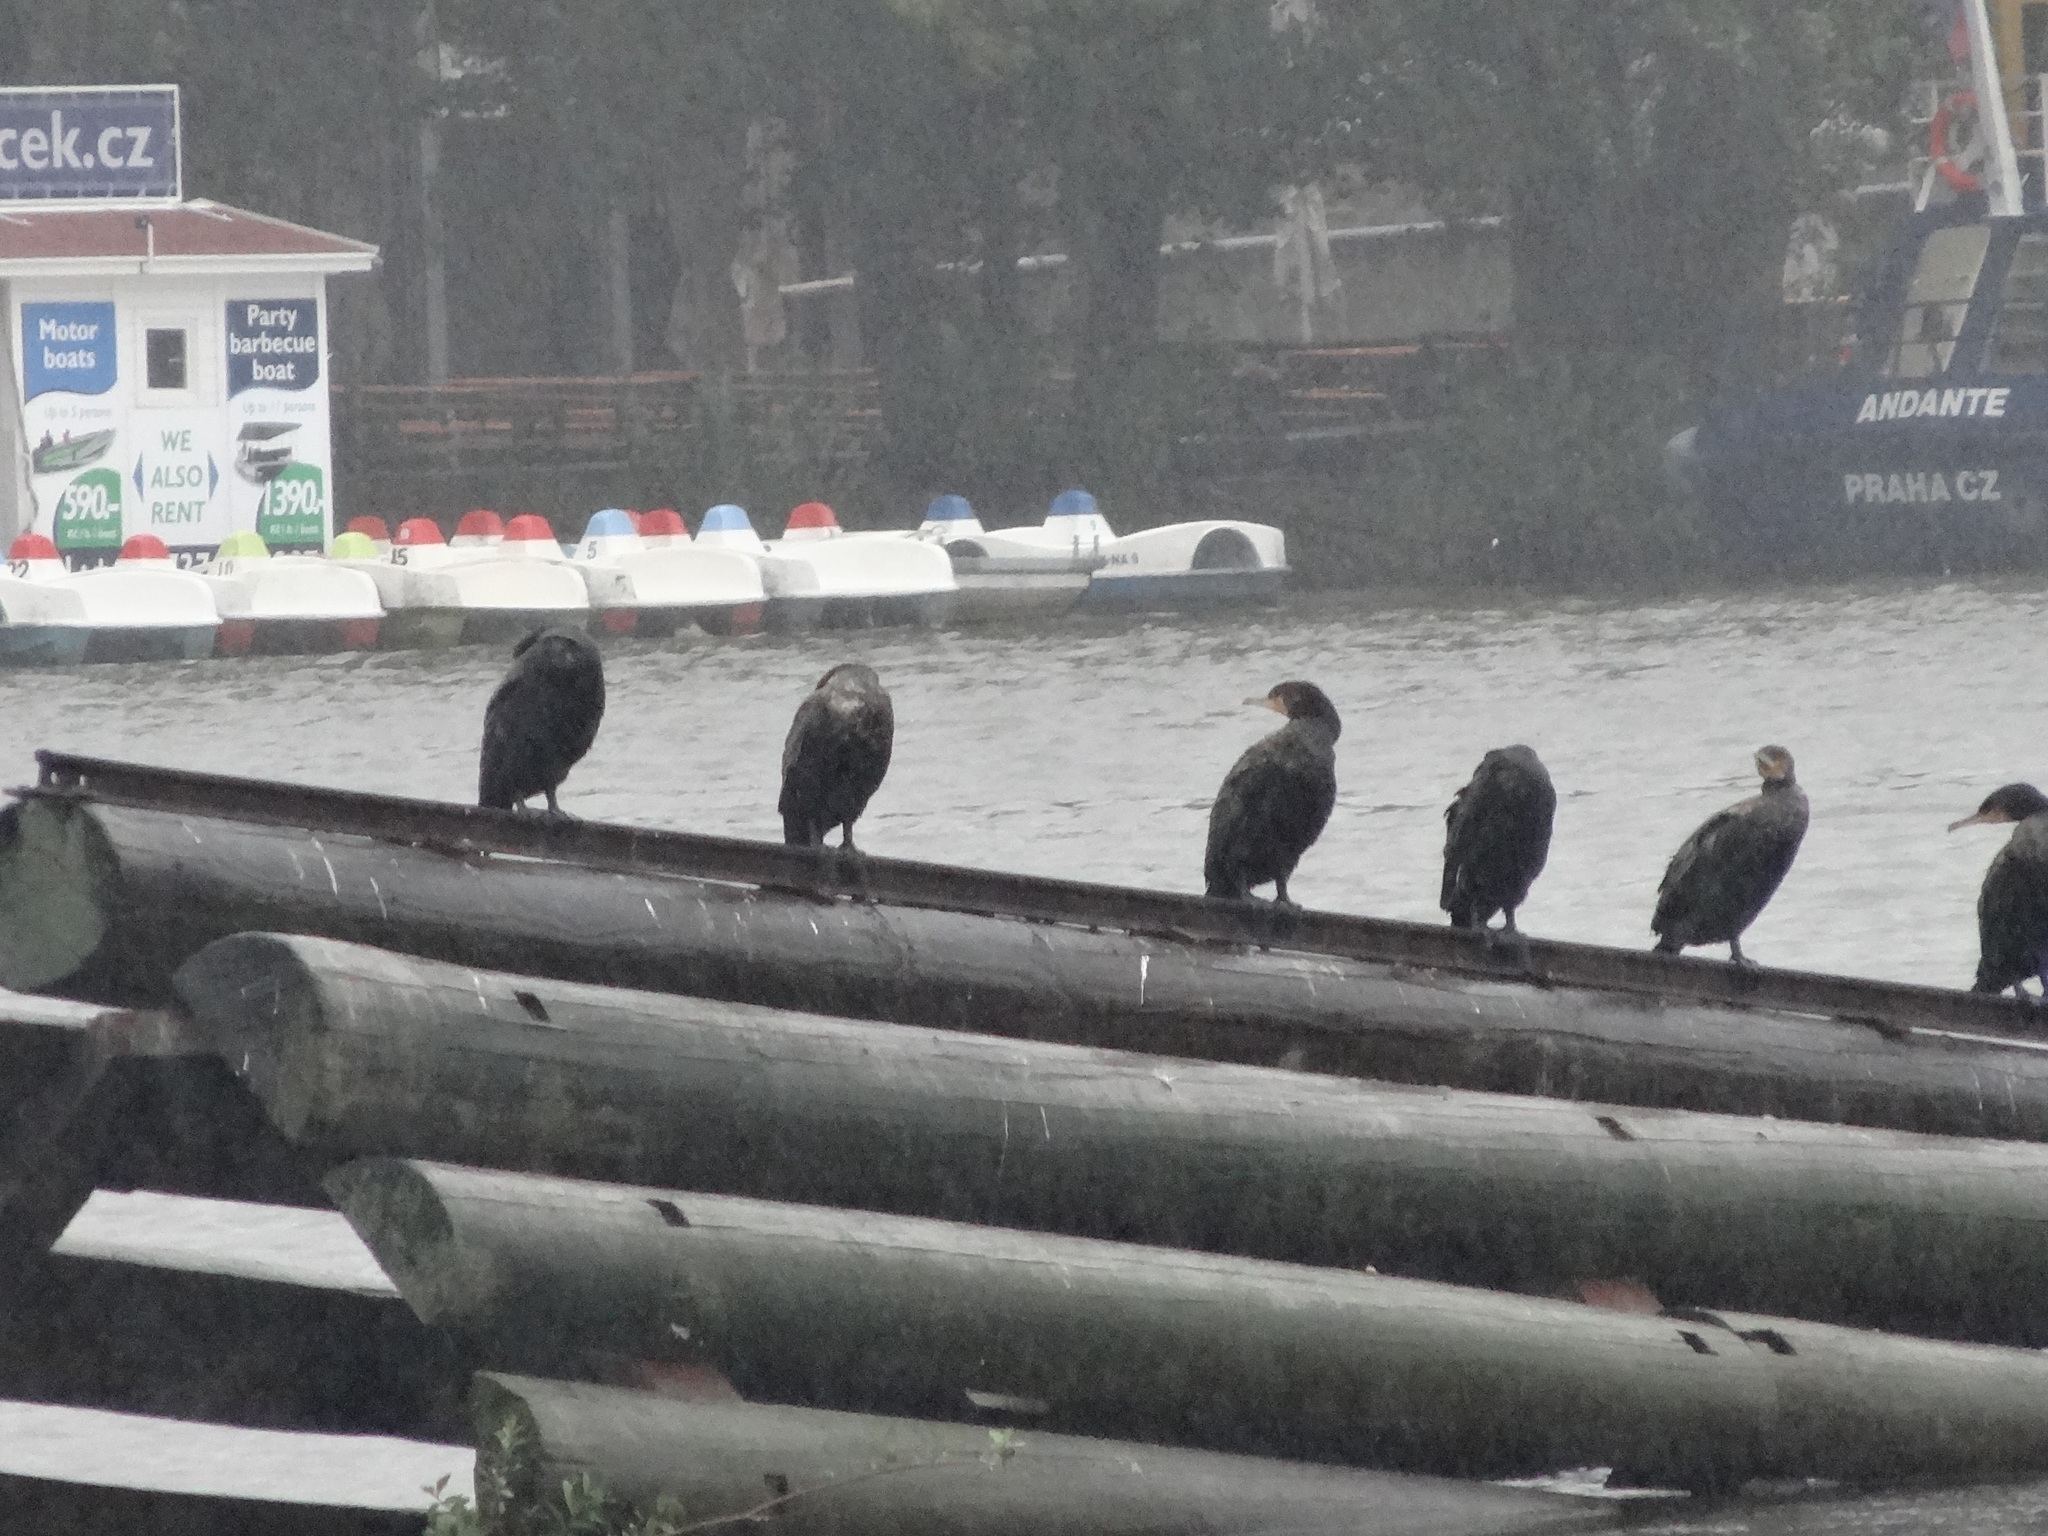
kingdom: Animalia
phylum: Chordata
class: Aves
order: Suliformes
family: Phalacrocoracidae
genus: Phalacrocorax
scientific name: Phalacrocorax carbo
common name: Great cormorant
